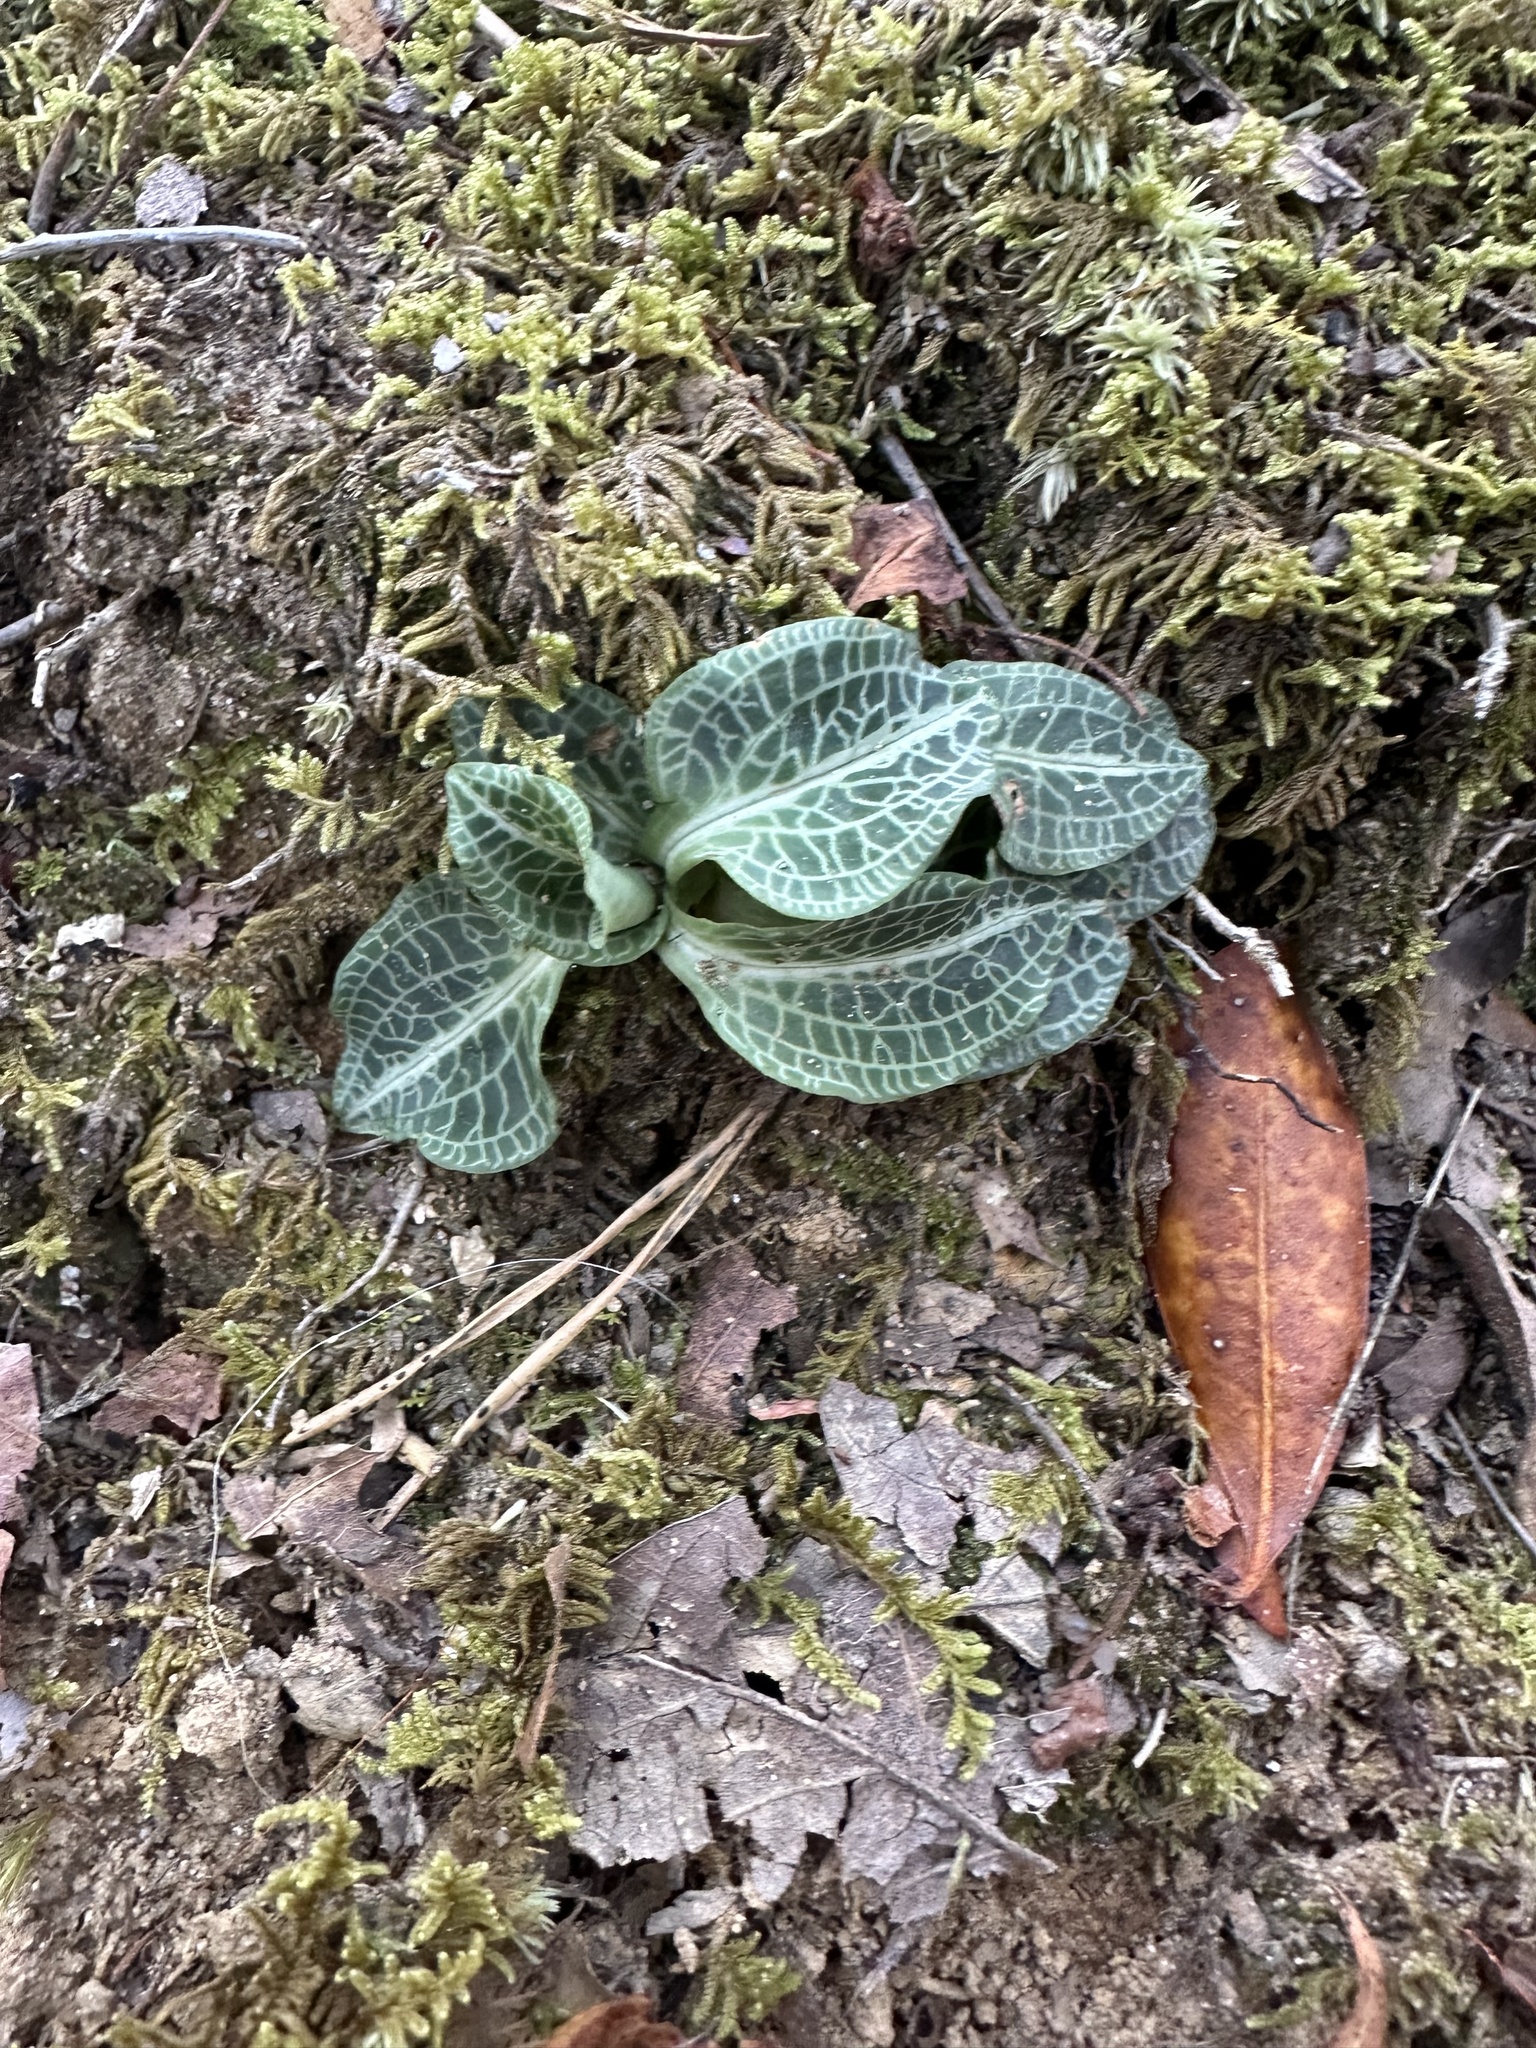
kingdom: Plantae
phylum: Tracheophyta
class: Liliopsida
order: Asparagales
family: Orchidaceae
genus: Goodyera
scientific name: Goodyera pubescens
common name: Downy rattlesnake-plantain
